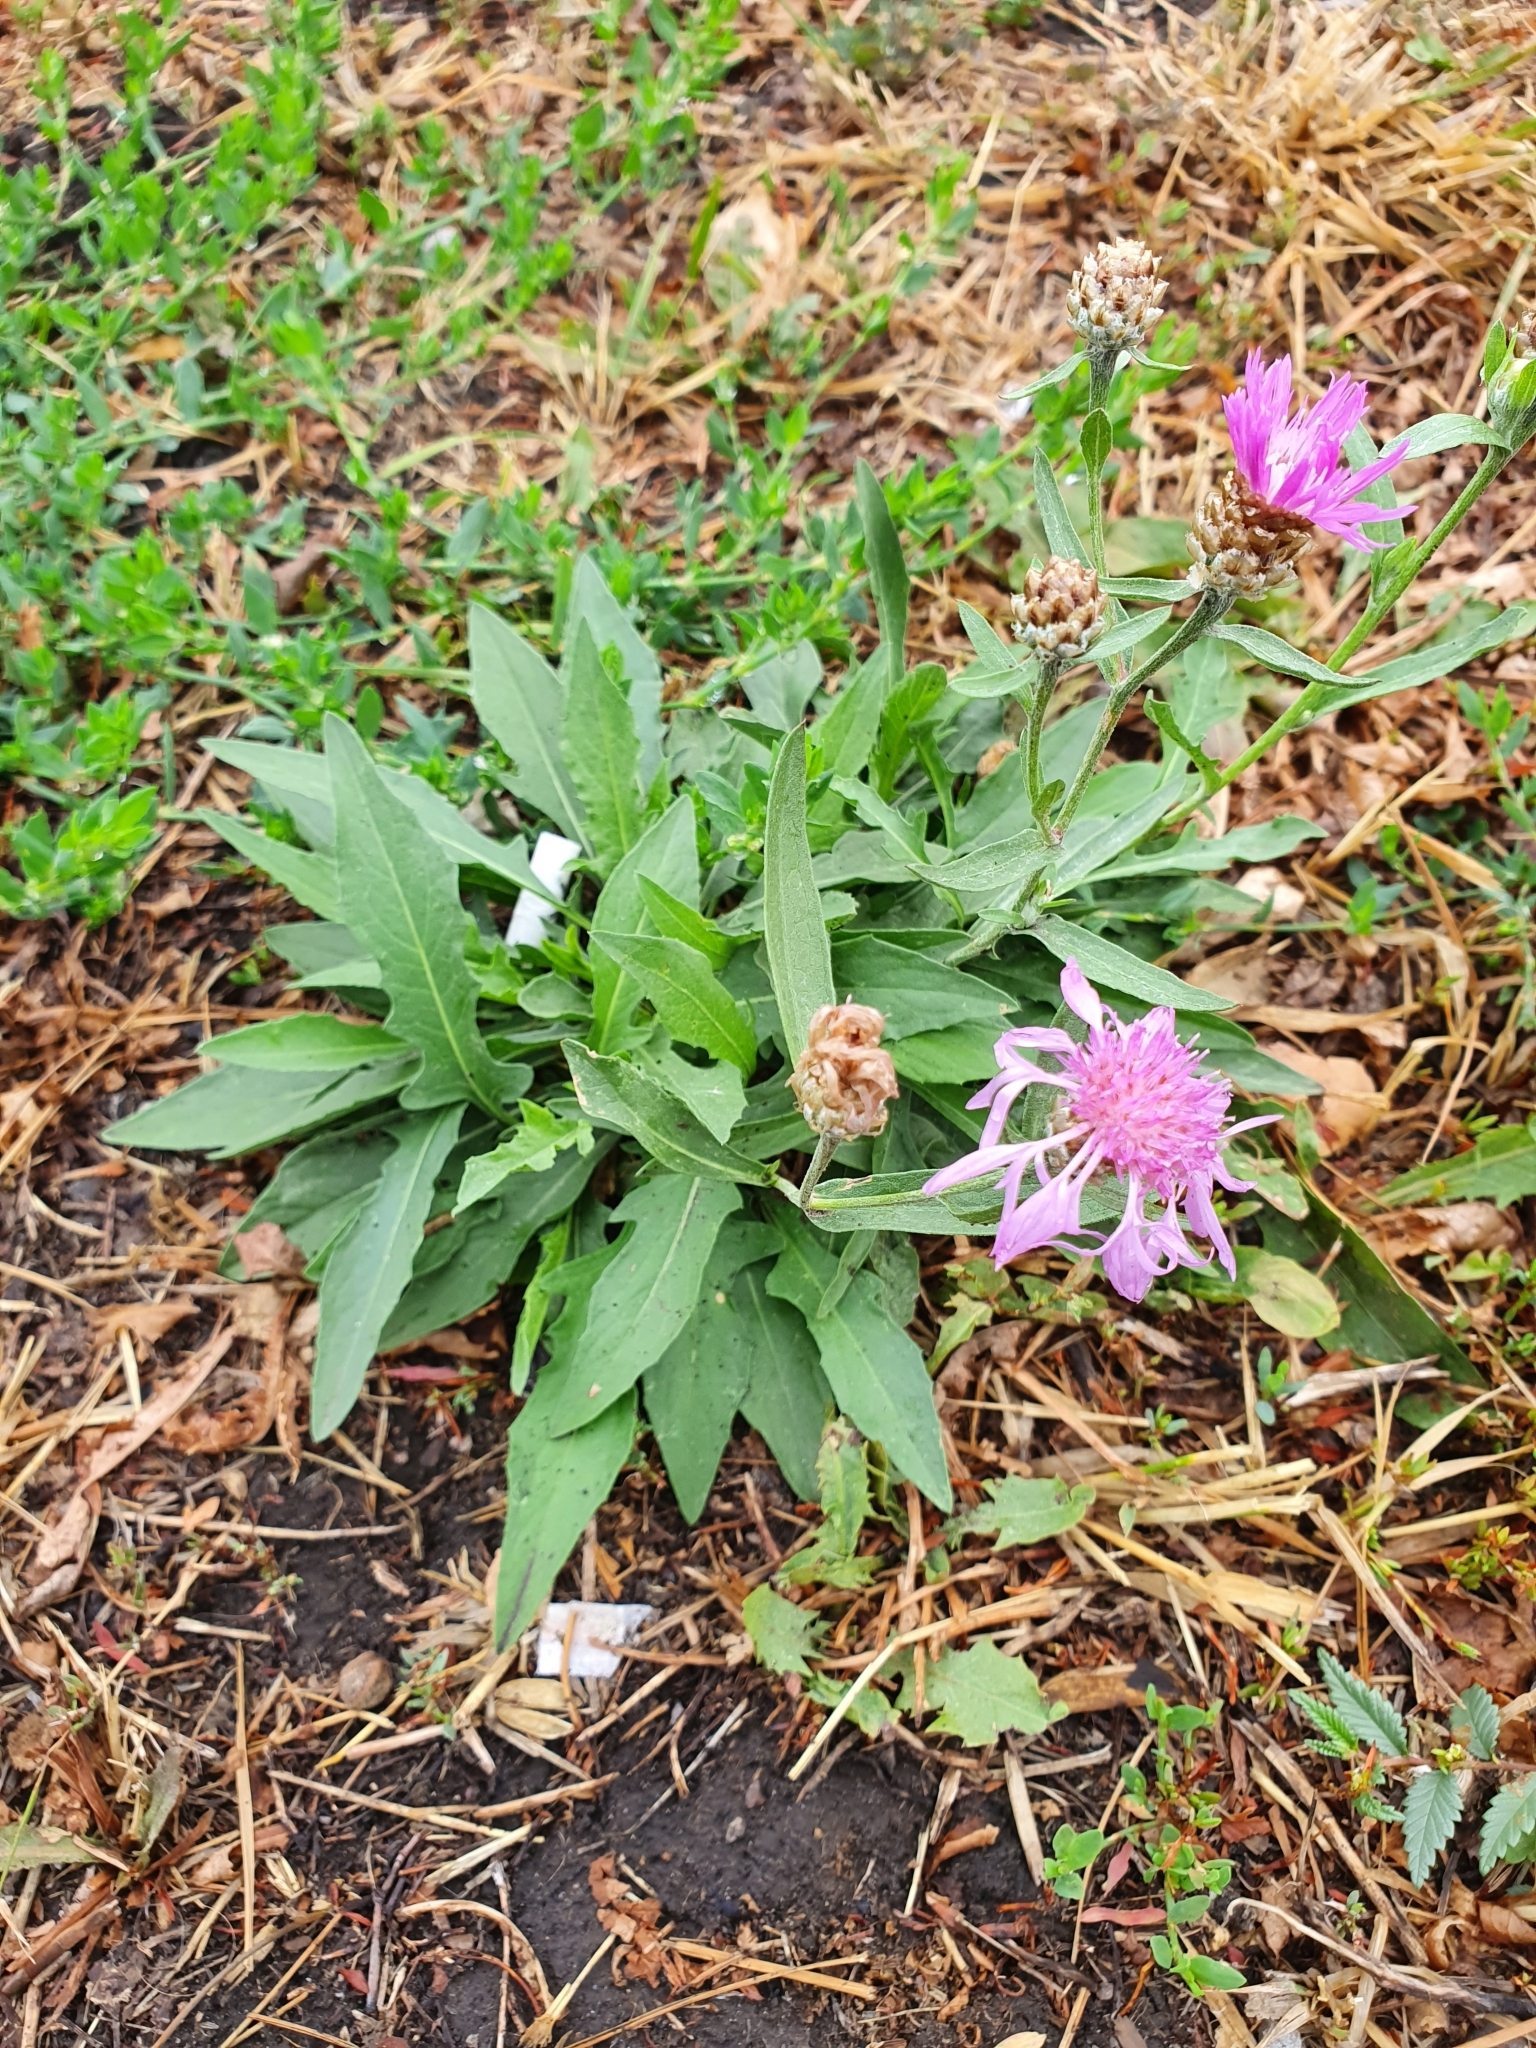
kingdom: Plantae
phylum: Tracheophyta
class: Magnoliopsida
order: Asterales
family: Asteraceae
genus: Centaurea
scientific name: Centaurea jacea
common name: Brown knapweed
